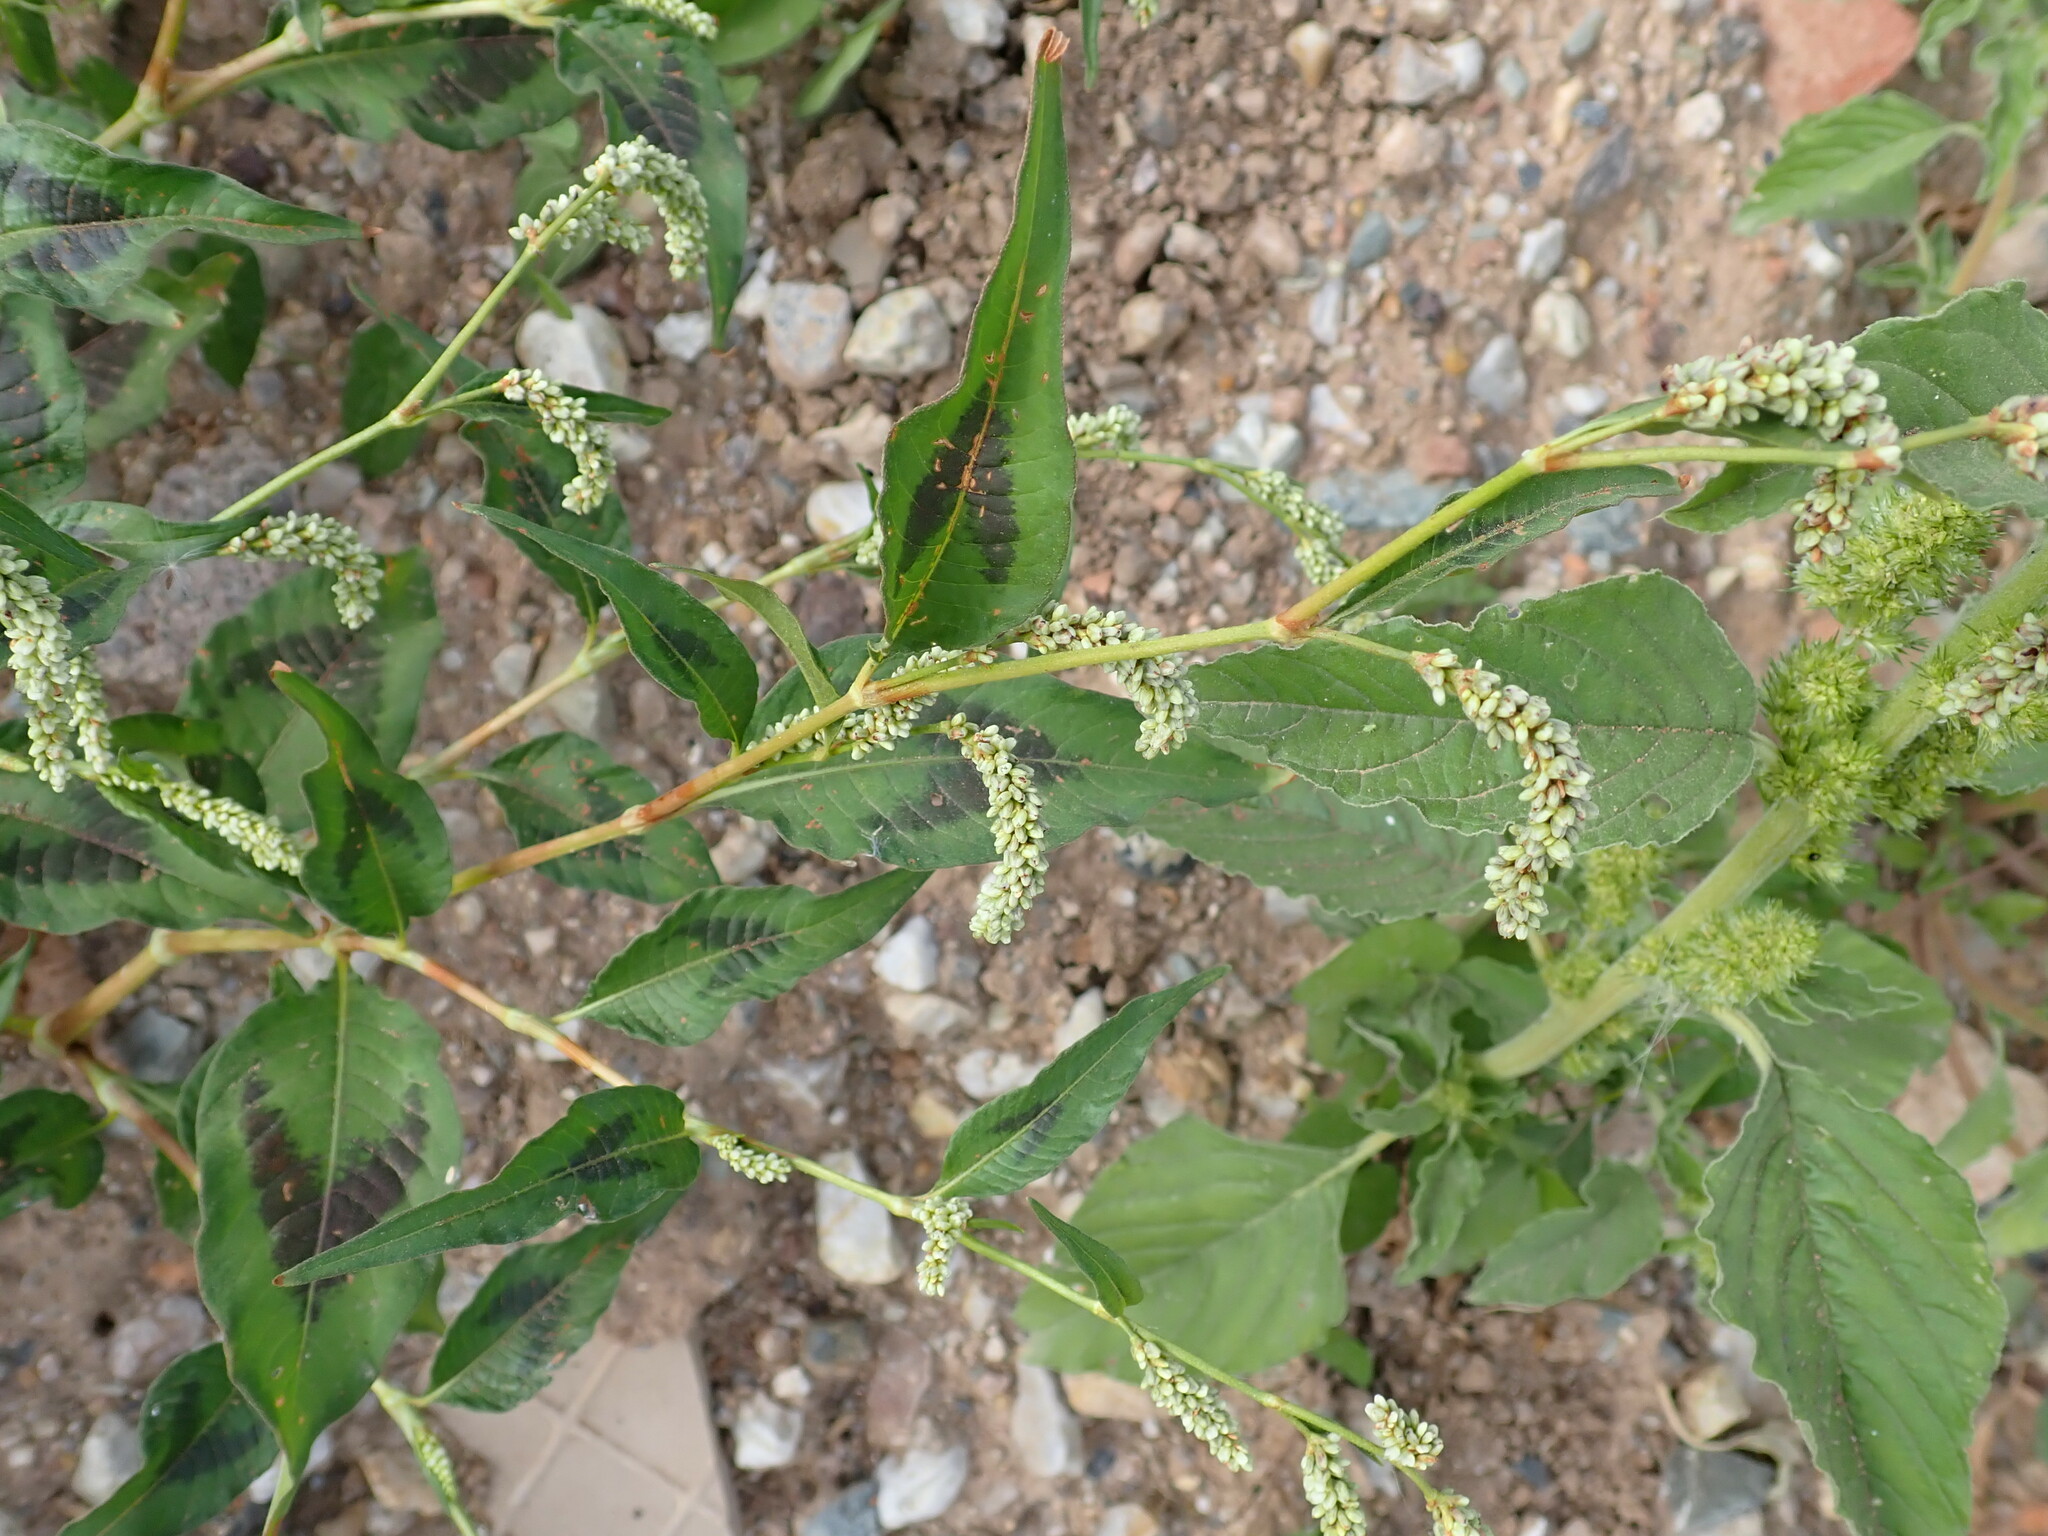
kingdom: Plantae
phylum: Tracheophyta
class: Magnoliopsida
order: Caryophyllales
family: Polygonaceae
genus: Persicaria
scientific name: Persicaria lapathifolia
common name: Curlytop knotweed
